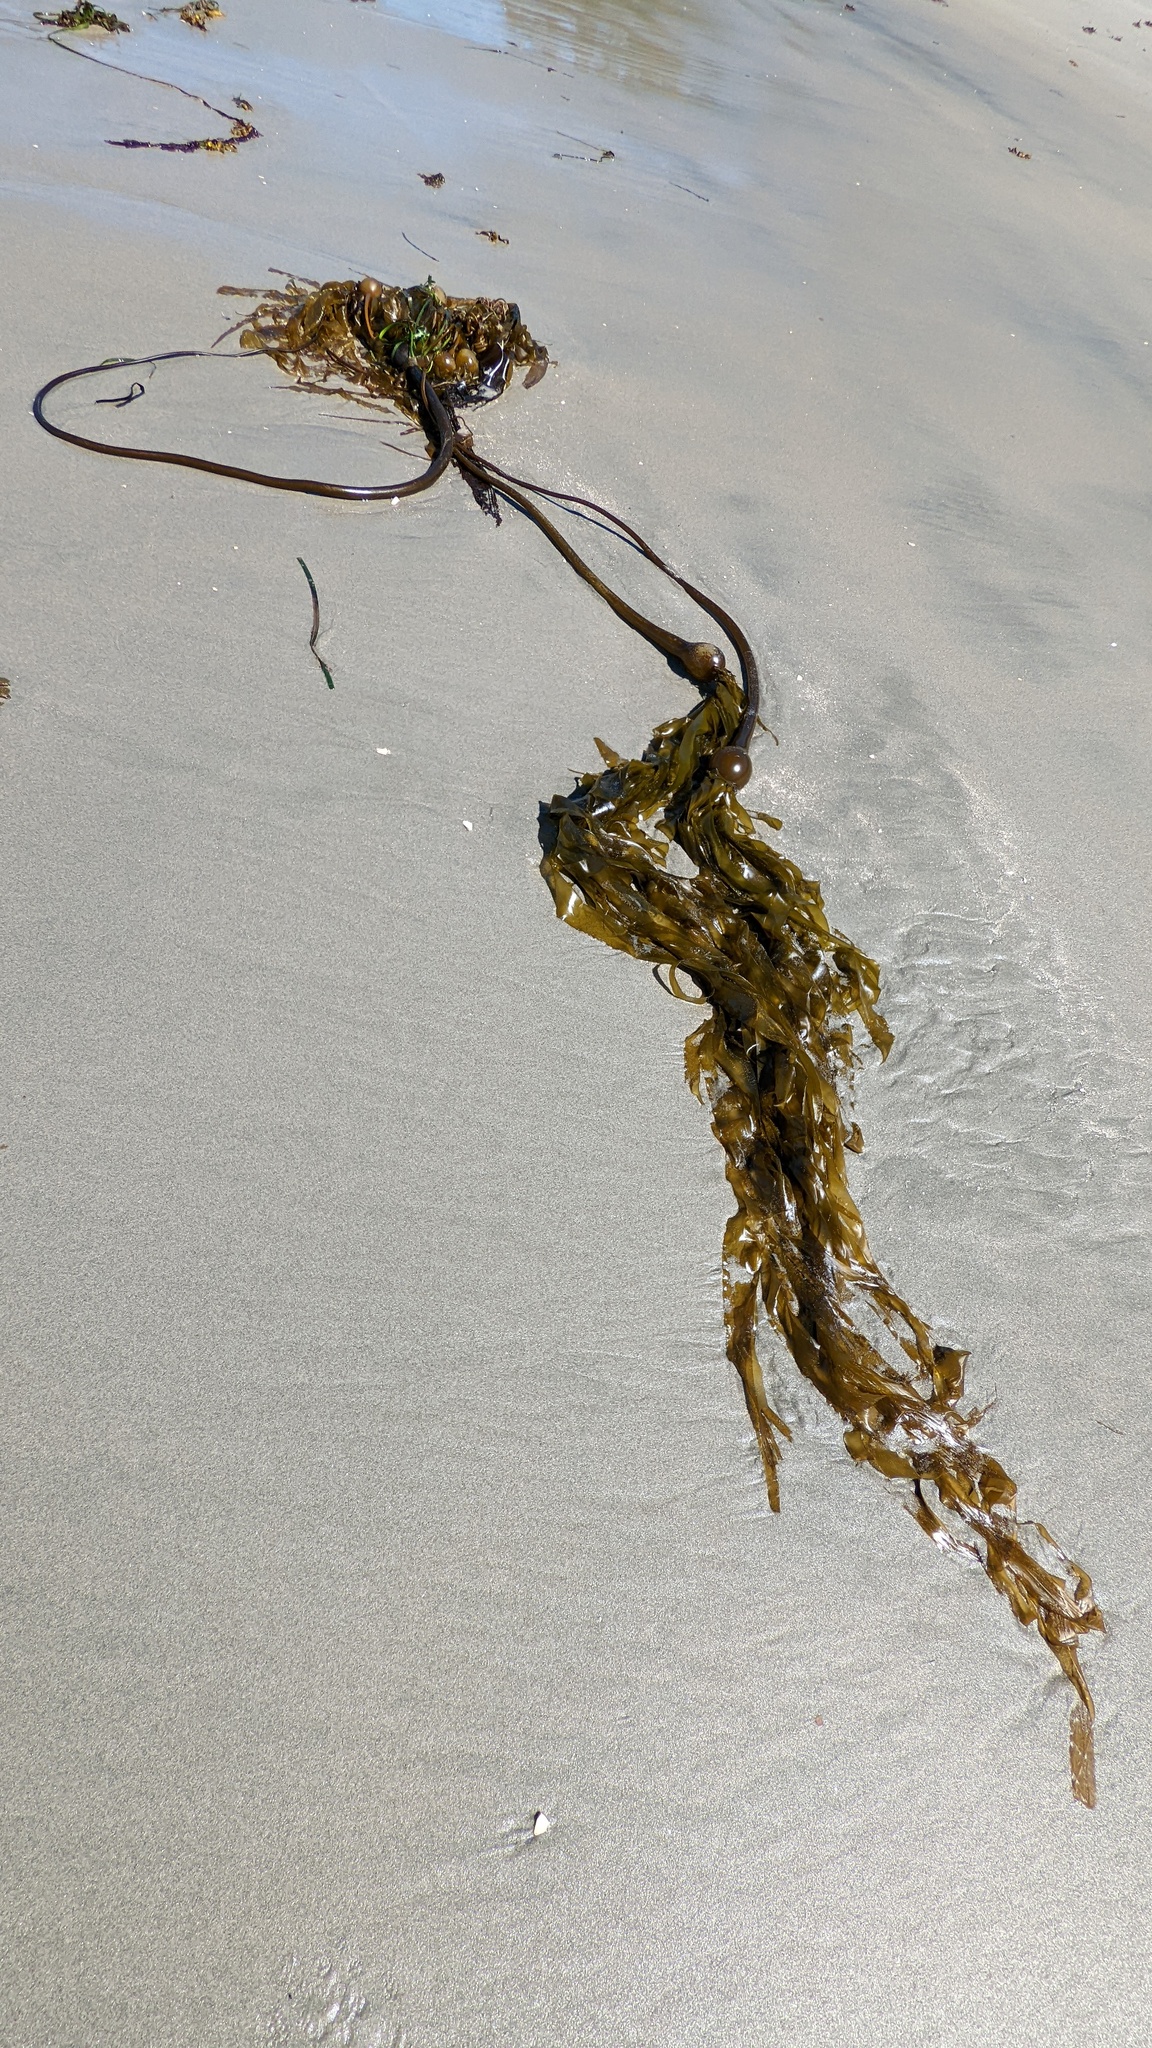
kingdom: Chromista
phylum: Ochrophyta
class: Phaeophyceae
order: Laminariales
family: Laminariaceae
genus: Nereocystis
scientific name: Nereocystis luetkeana
